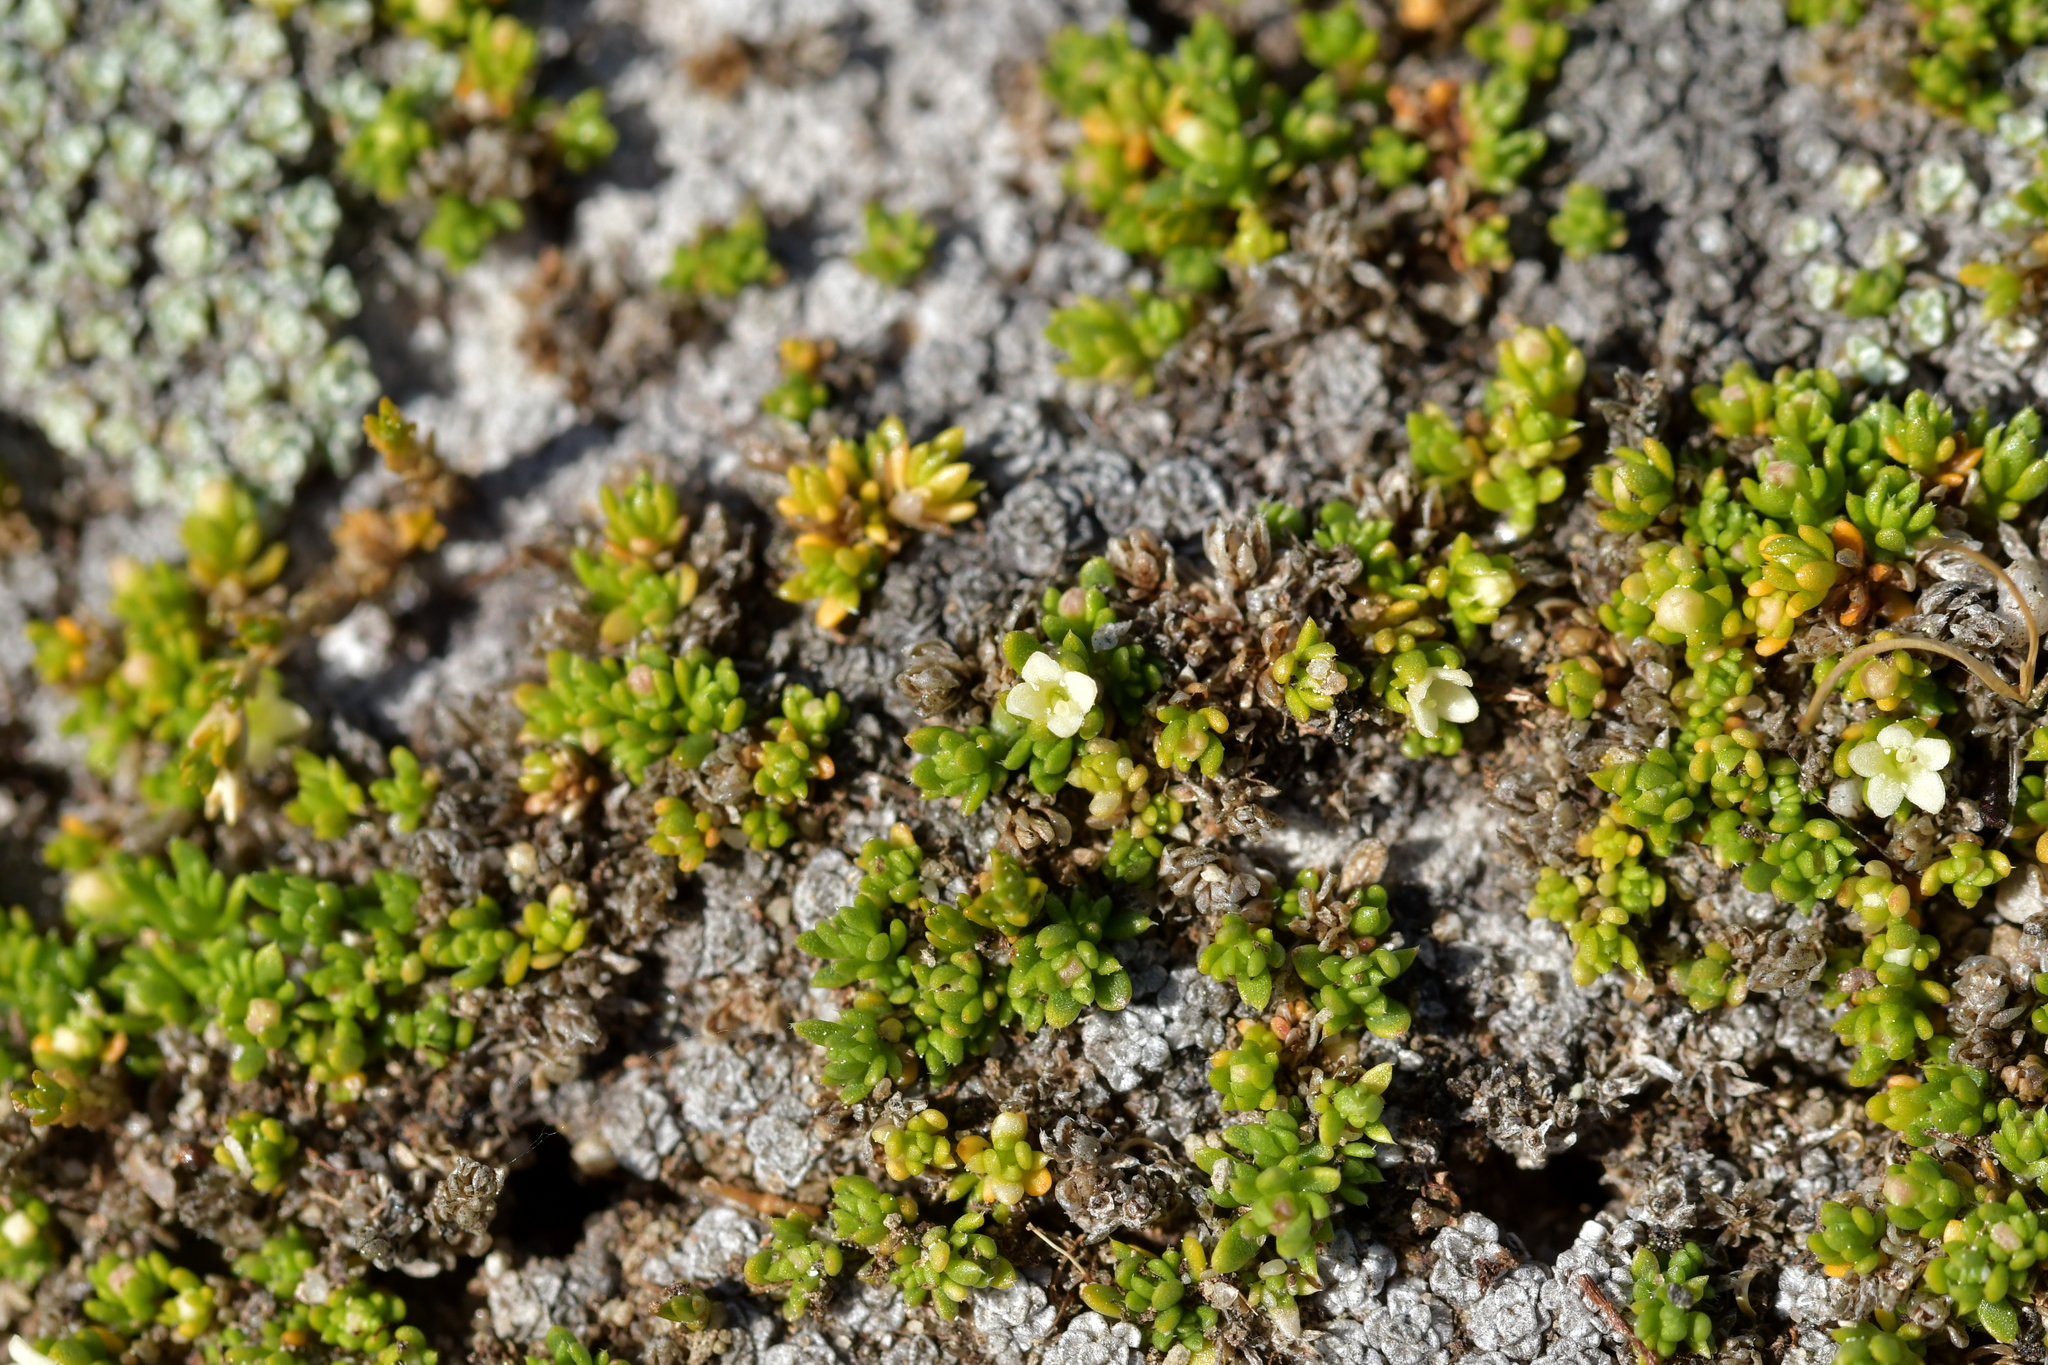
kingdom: Plantae
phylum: Tracheophyta
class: Magnoliopsida
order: Gentianales
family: Rubiaceae
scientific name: Rubiaceae
